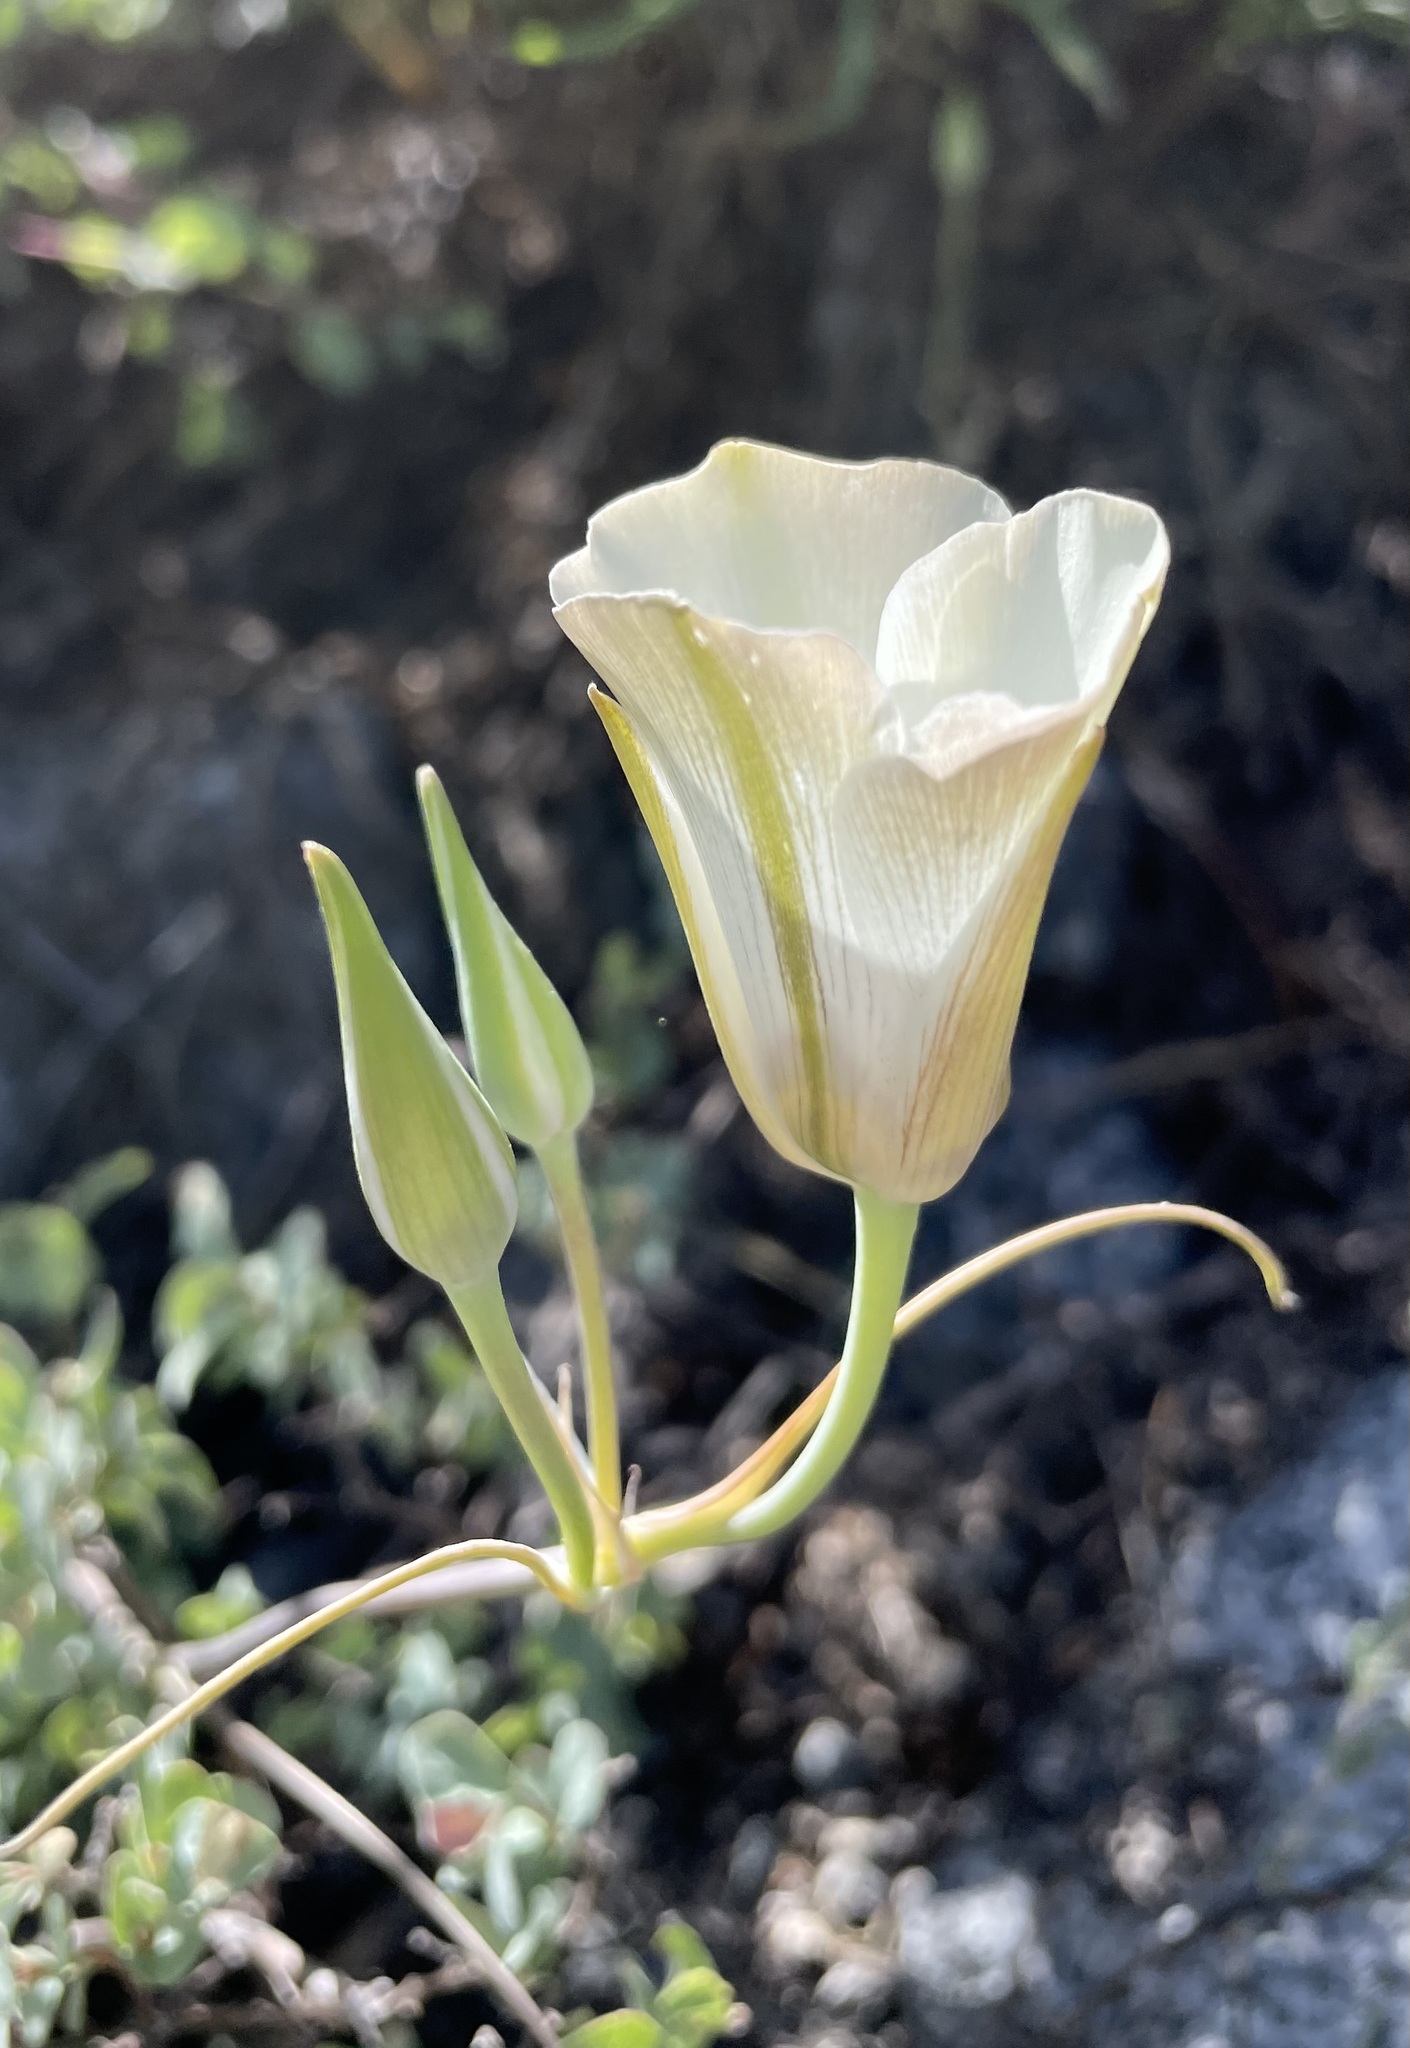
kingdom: Plantae
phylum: Tracheophyta
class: Liliopsida
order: Liliales
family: Liliaceae
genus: Calochortus
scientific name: Calochortus bruneaunis
